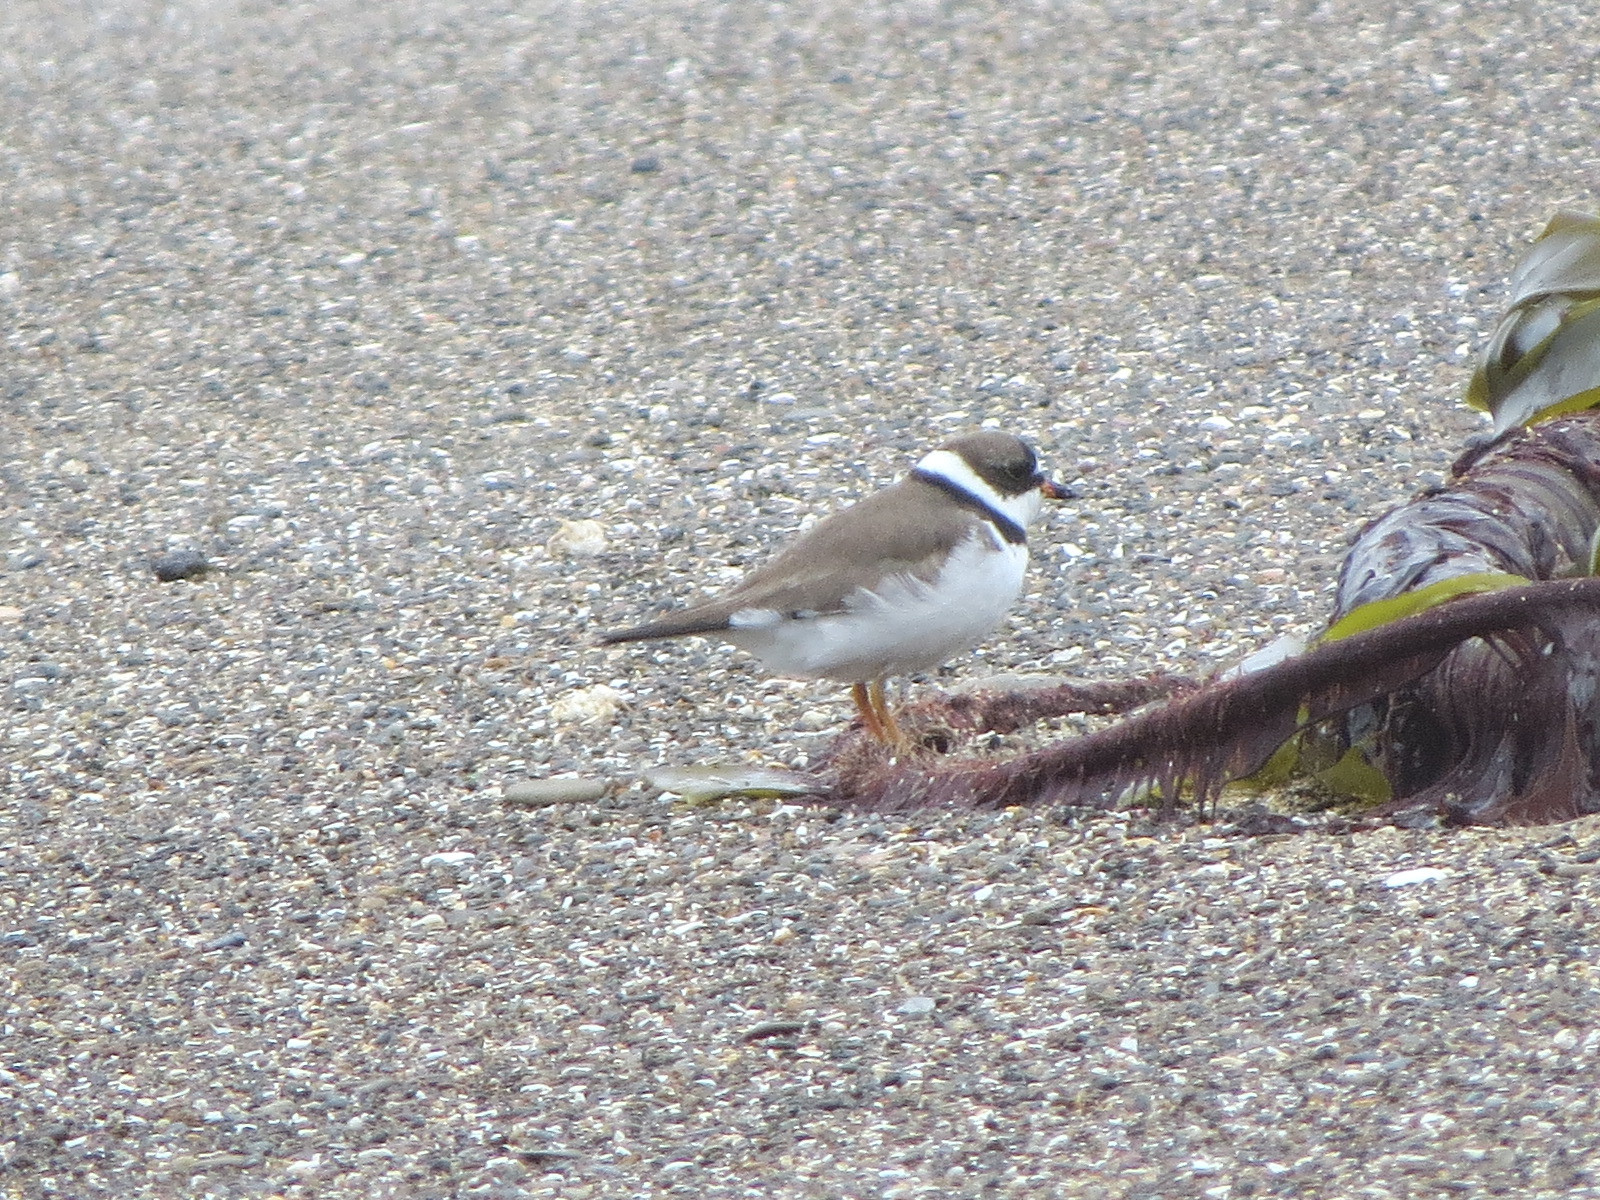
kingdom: Animalia
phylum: Chordata
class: Aves
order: Charadriiformes
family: Charadriidae
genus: Charadrius
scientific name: Charadrius semipalmatus
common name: Semipalmated plover
